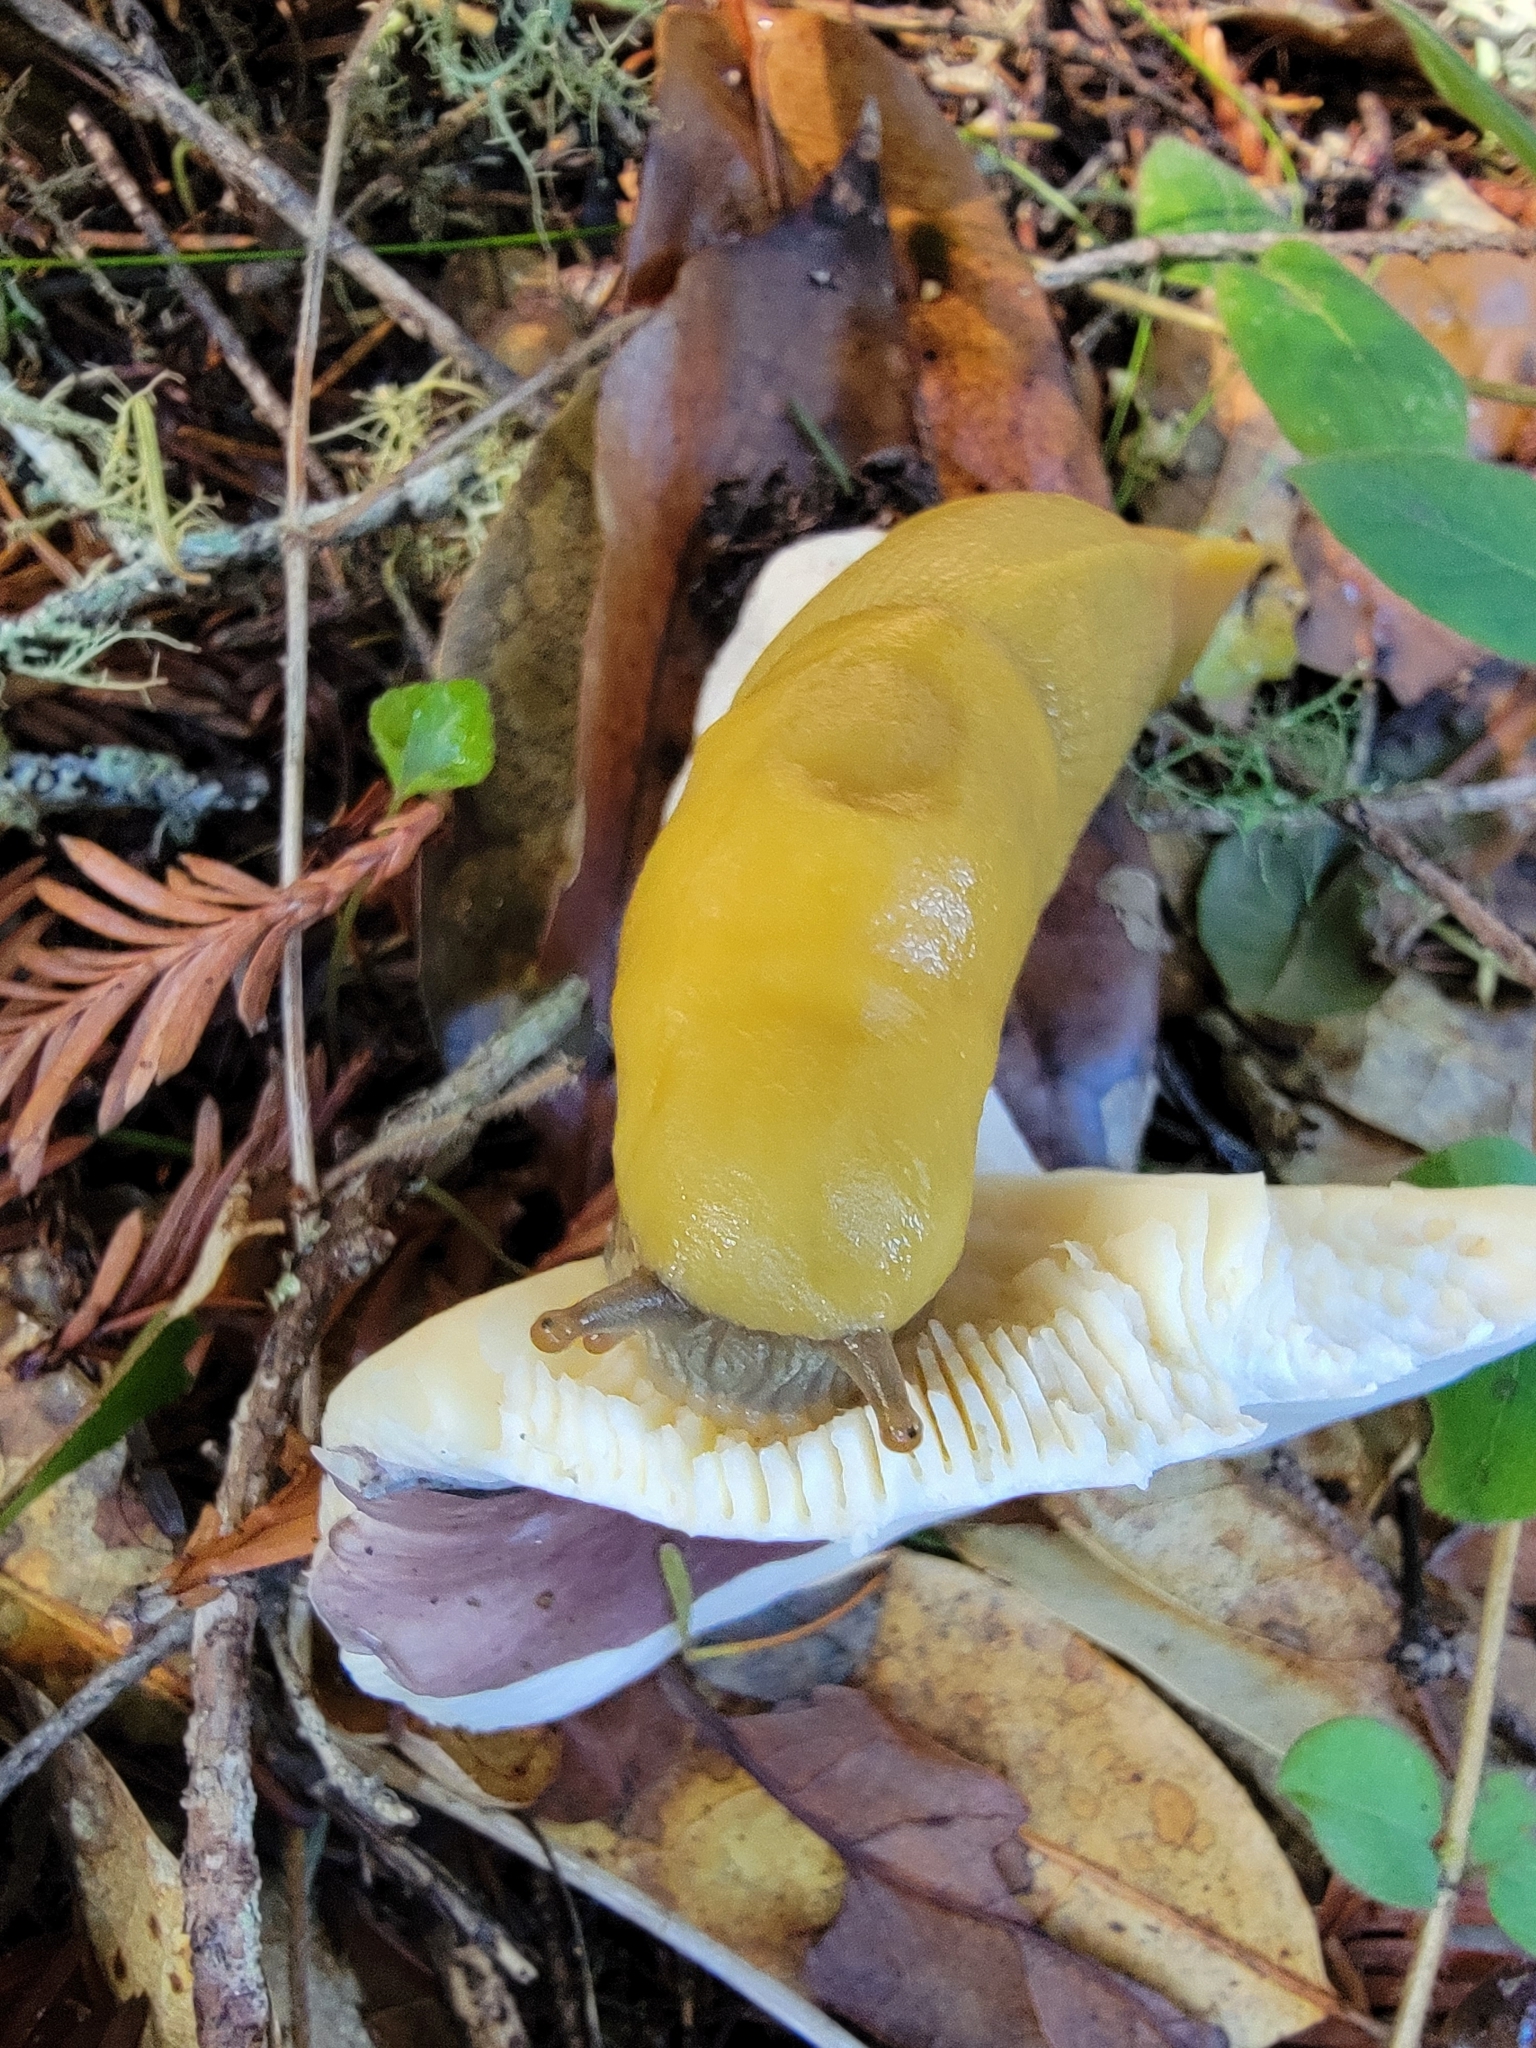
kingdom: Animalia
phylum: Mollusca
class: Gastropoda
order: Stylommatophora
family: Ariolimacidae
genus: Ariolimax
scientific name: Ariolimax californicus
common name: California banana slug
